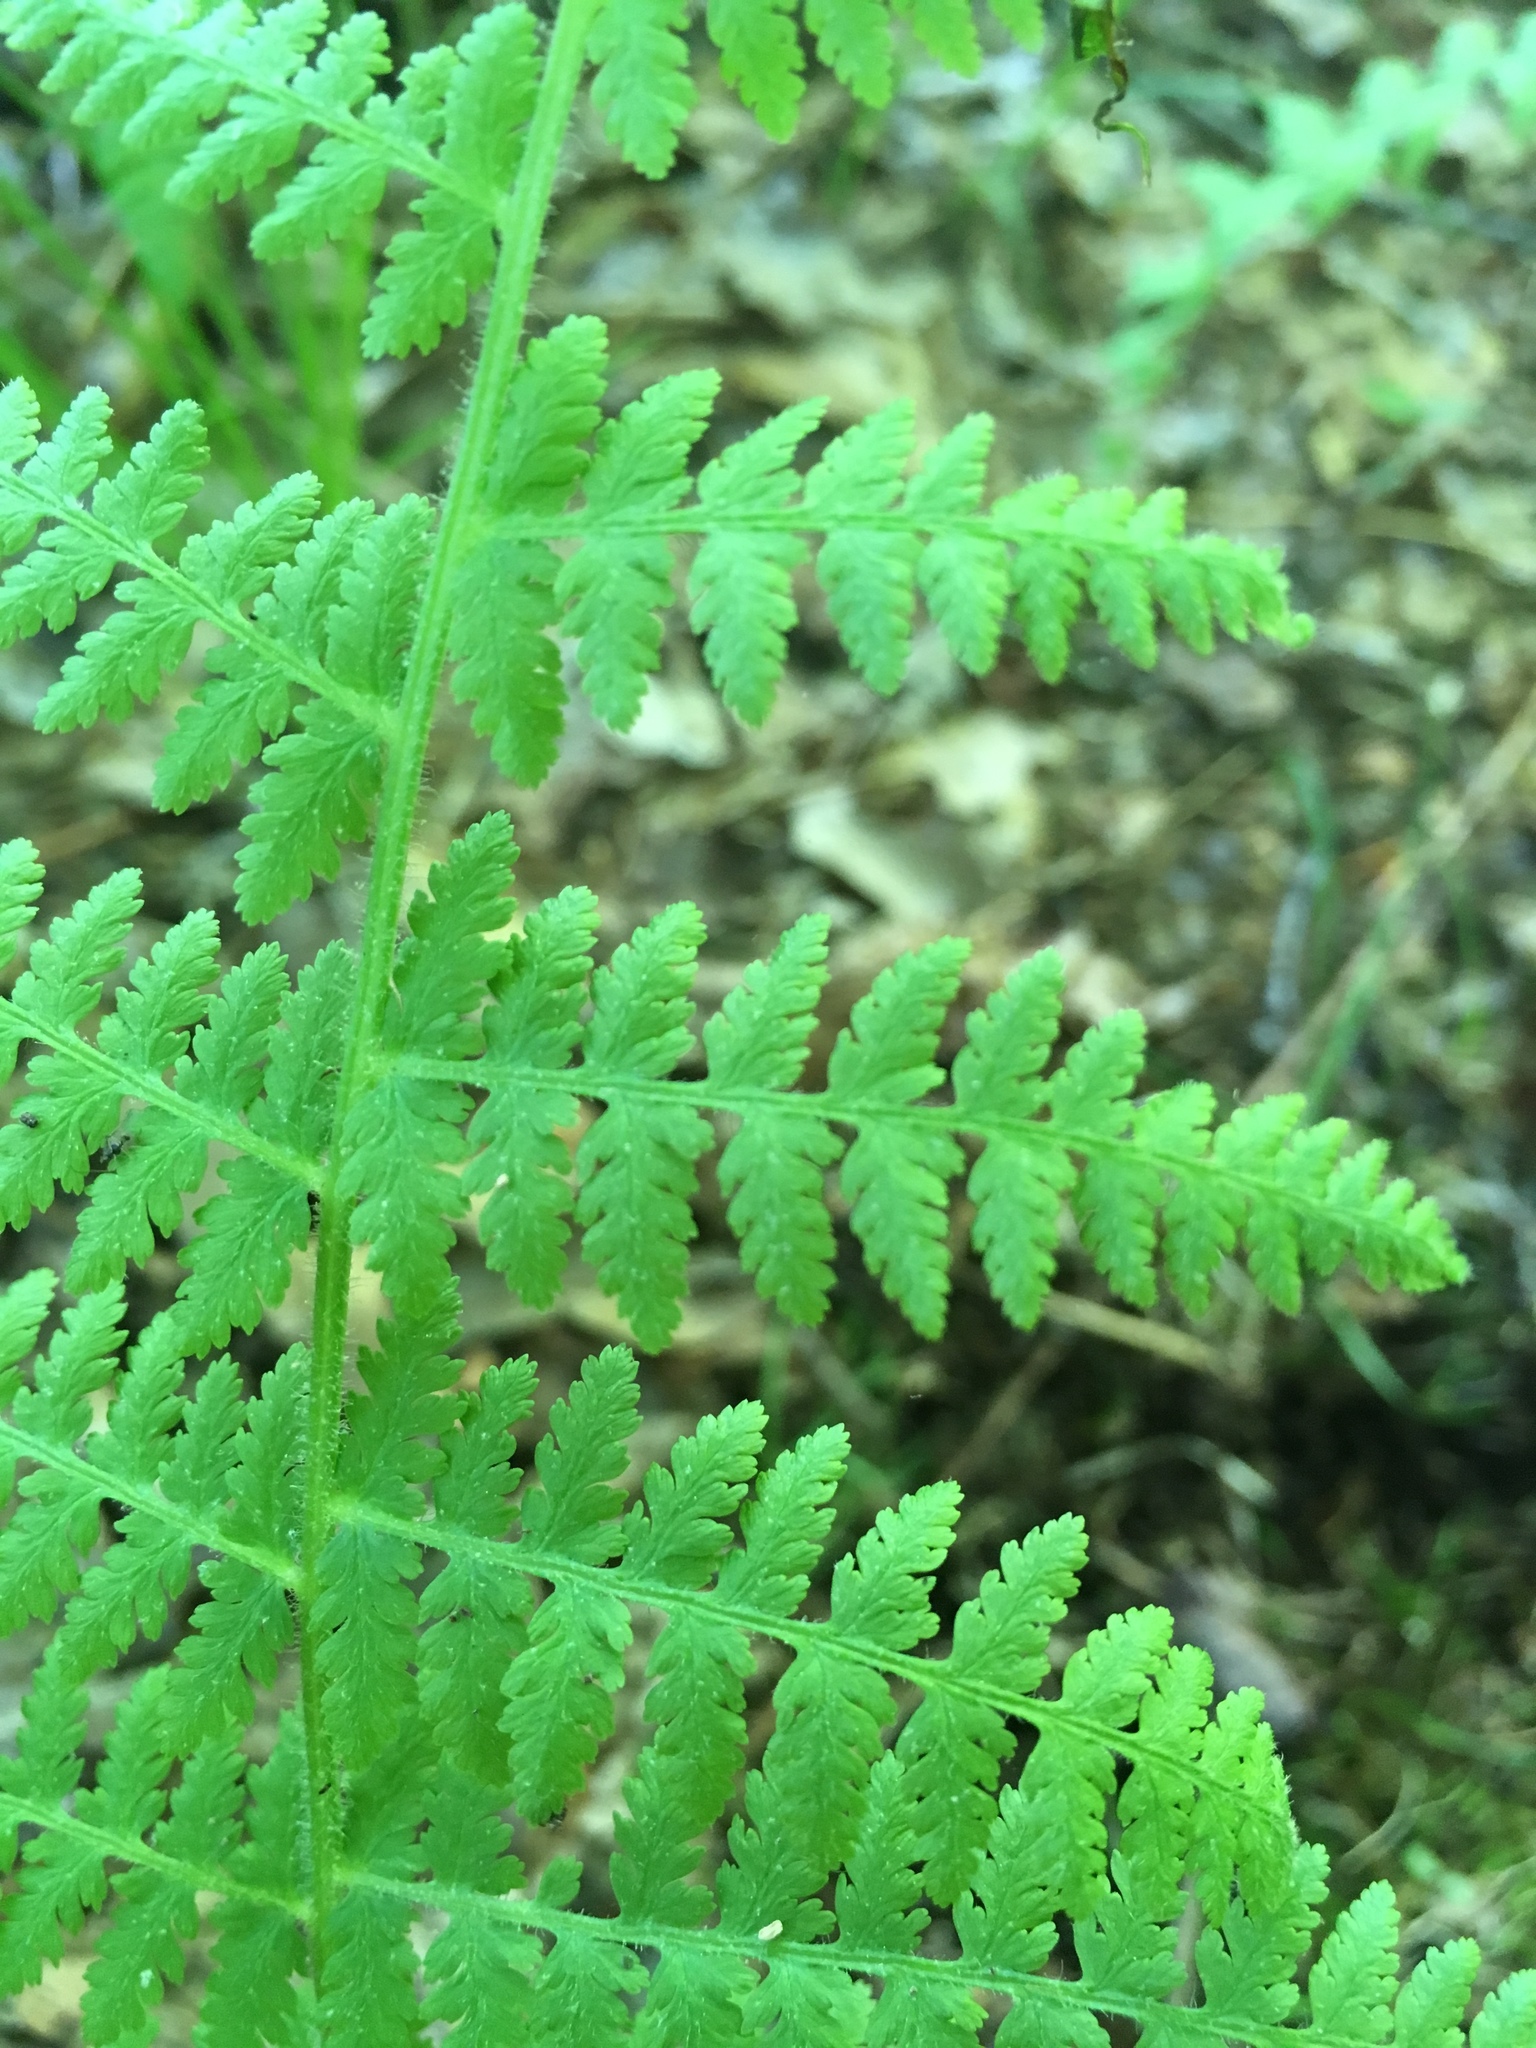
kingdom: Plantae
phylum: Tracheophyta
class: Polypodiopsida
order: Polypodiales
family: Dennstaedtiaceae
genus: Sitobolium
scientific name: Sitobolium punctilobum
